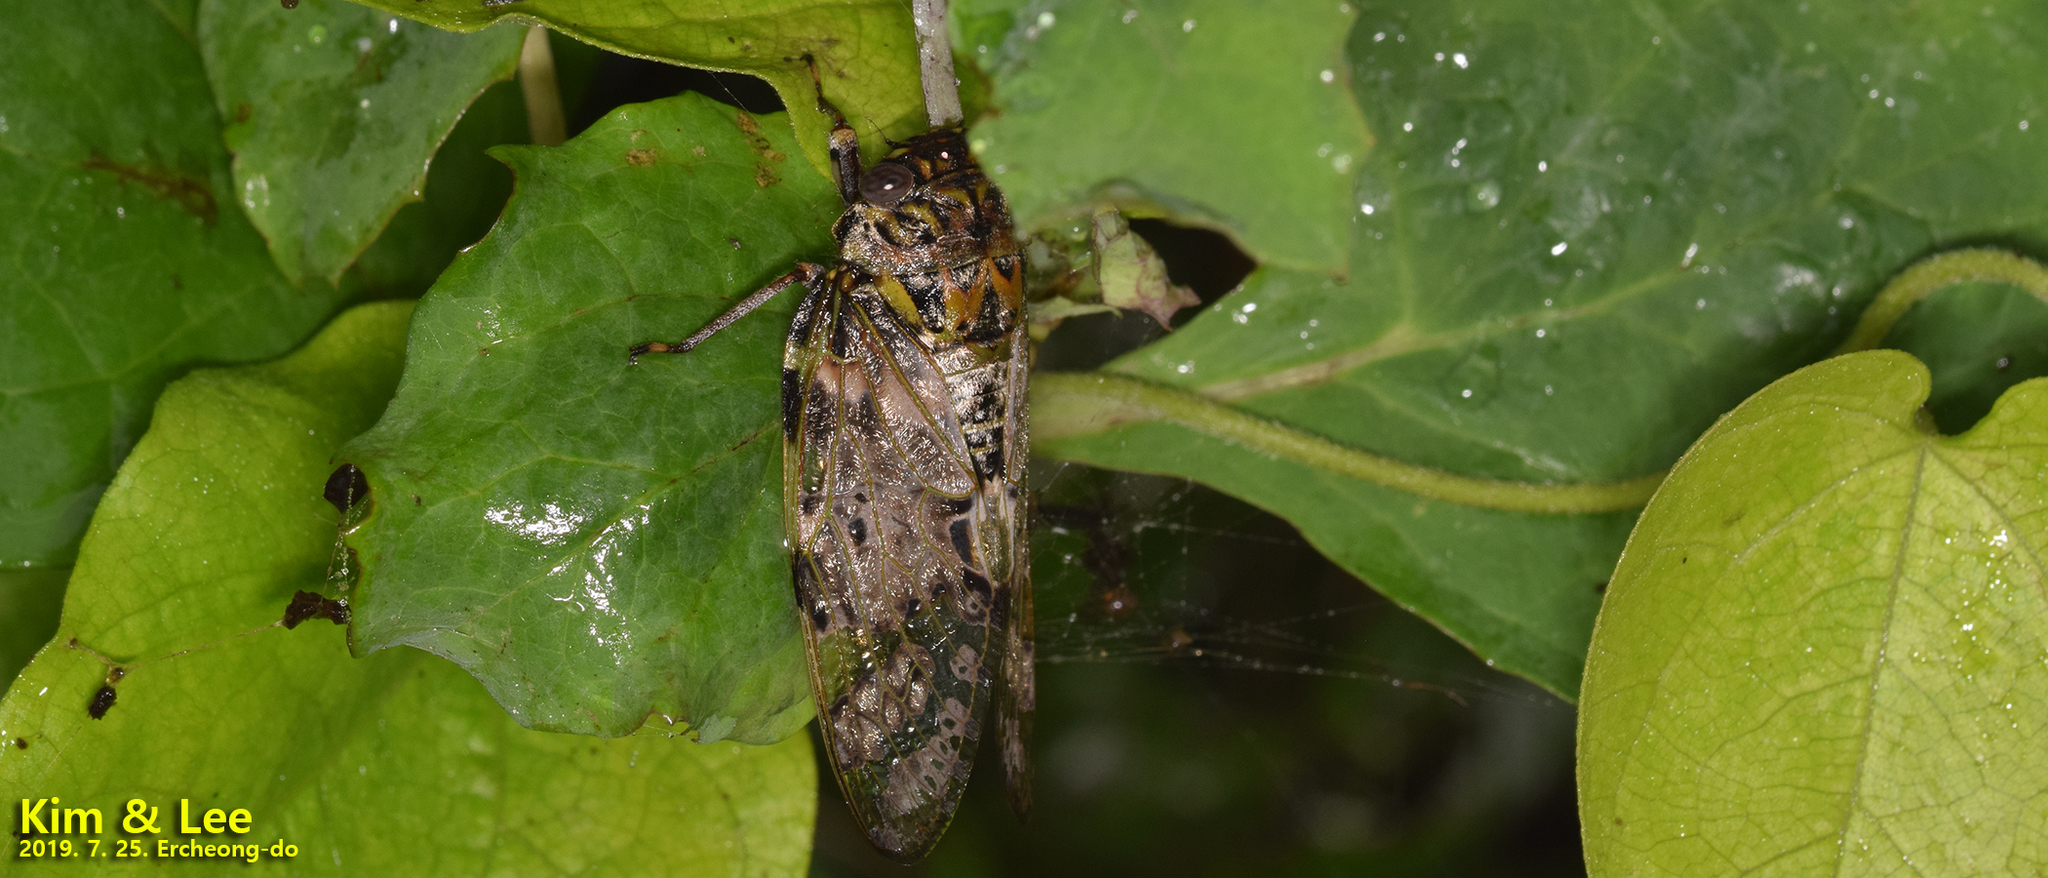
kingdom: Animalia
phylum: Arthropoda
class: Insecta
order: Hemiptera
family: Cicadidae
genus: Platypleura
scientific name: Platypleura kaempferi
